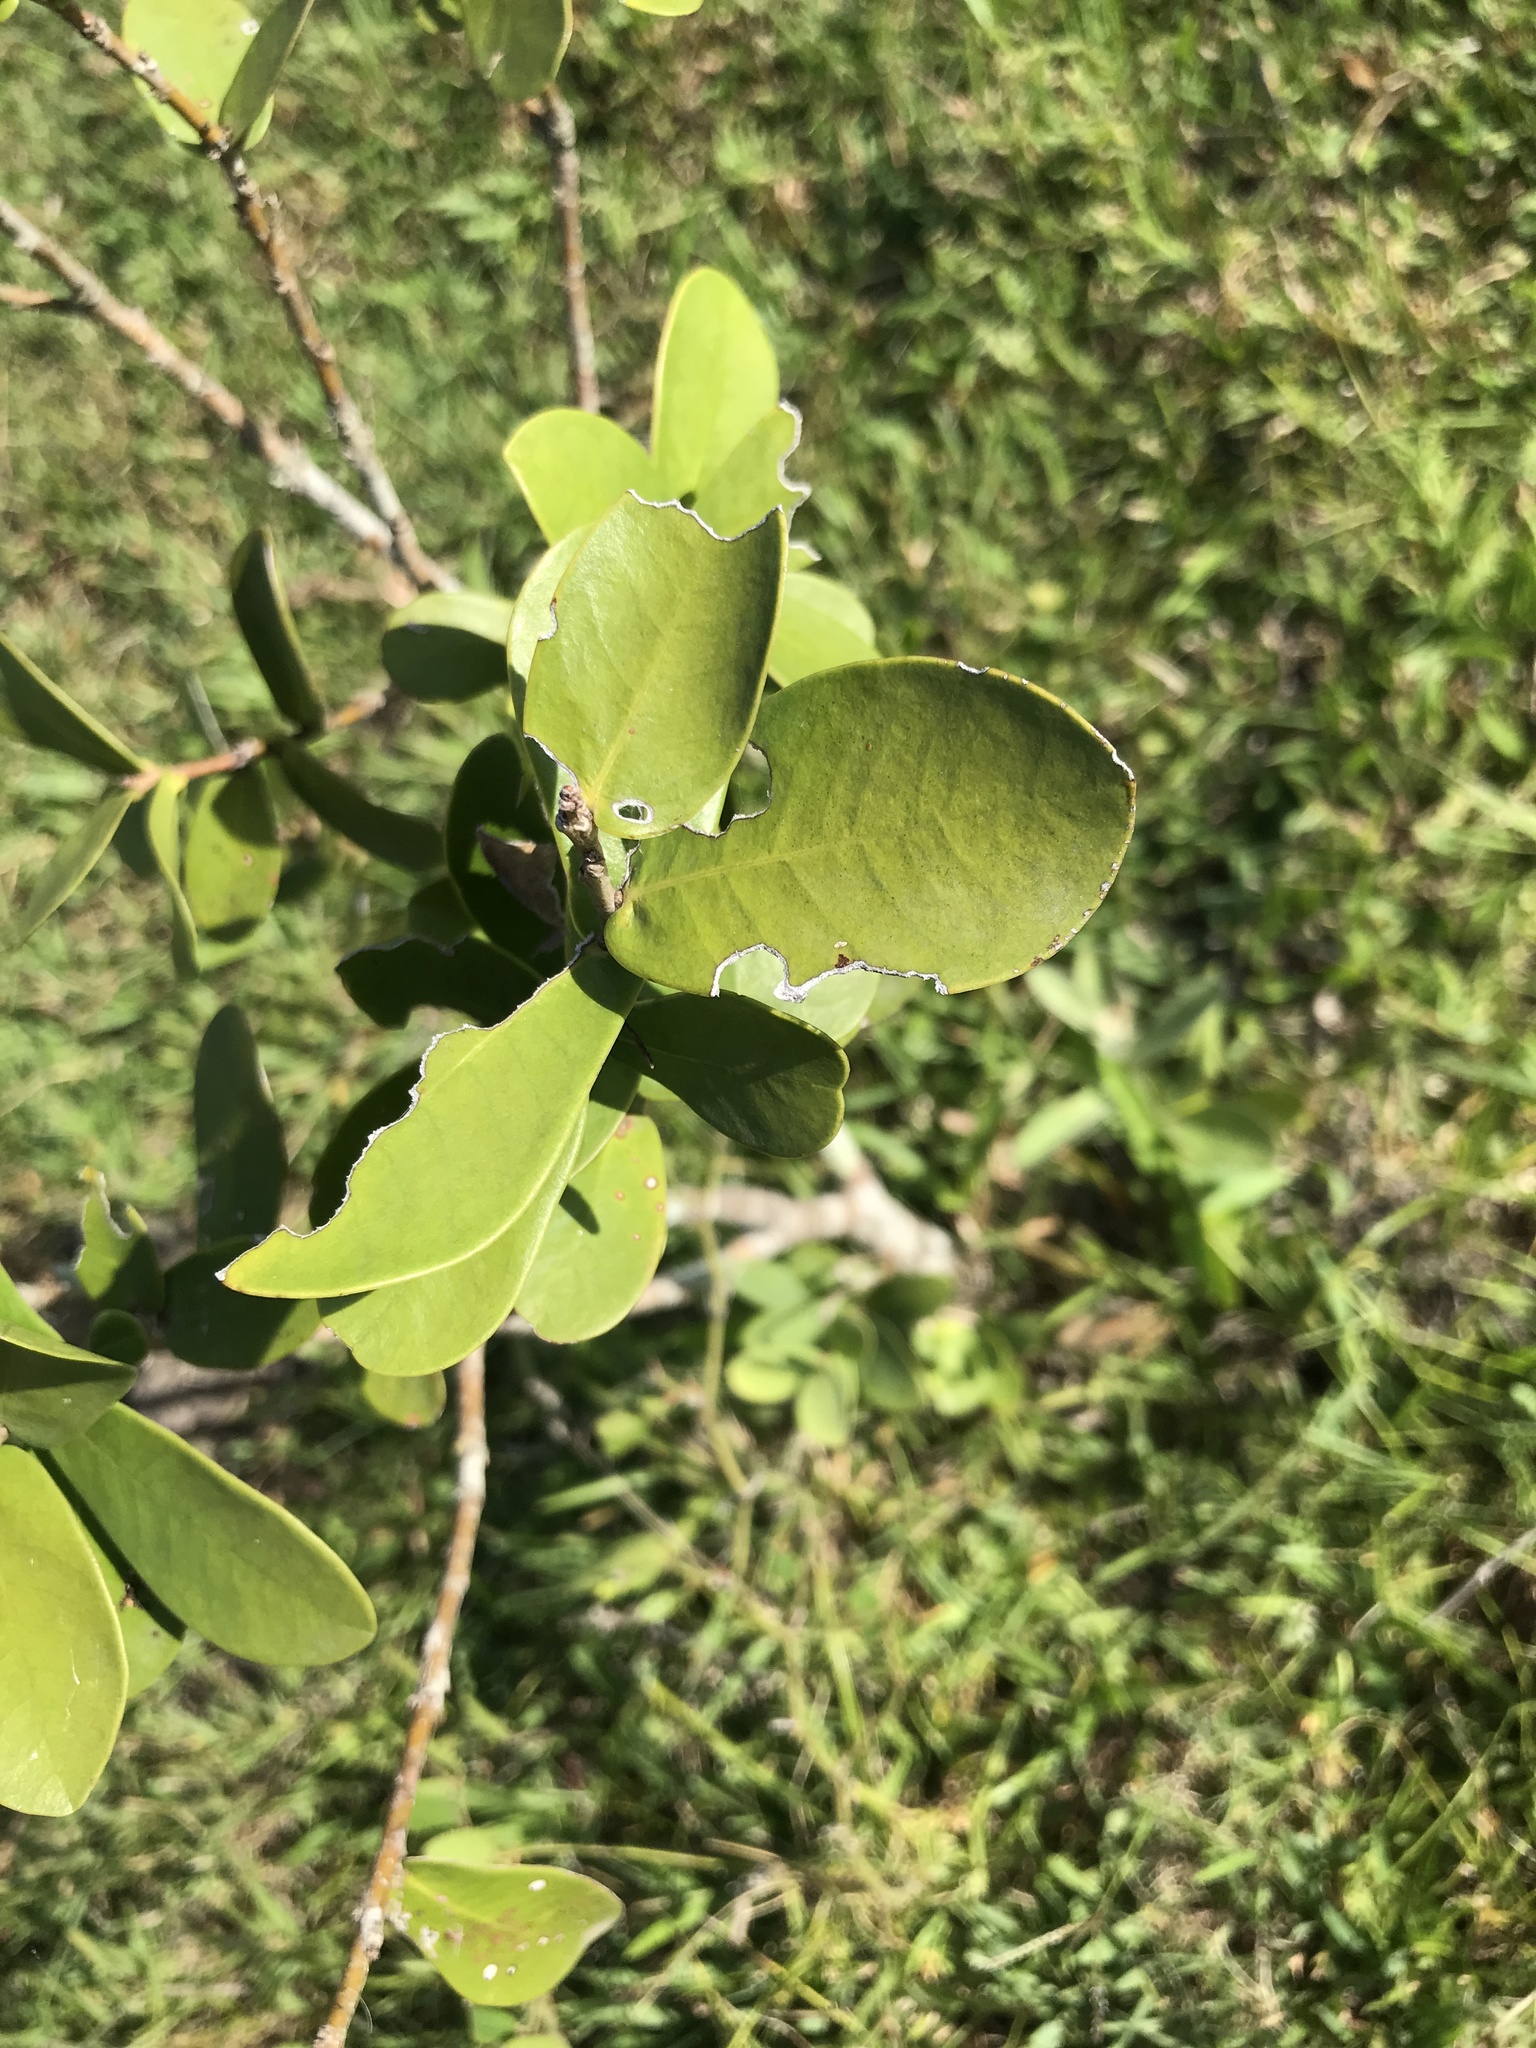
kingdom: Plantae
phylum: Tracheophyta
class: Magnoliopsida
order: Malvales
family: Thymelaeaceae
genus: Daphnopsis
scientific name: Daphnopsis racemosa
